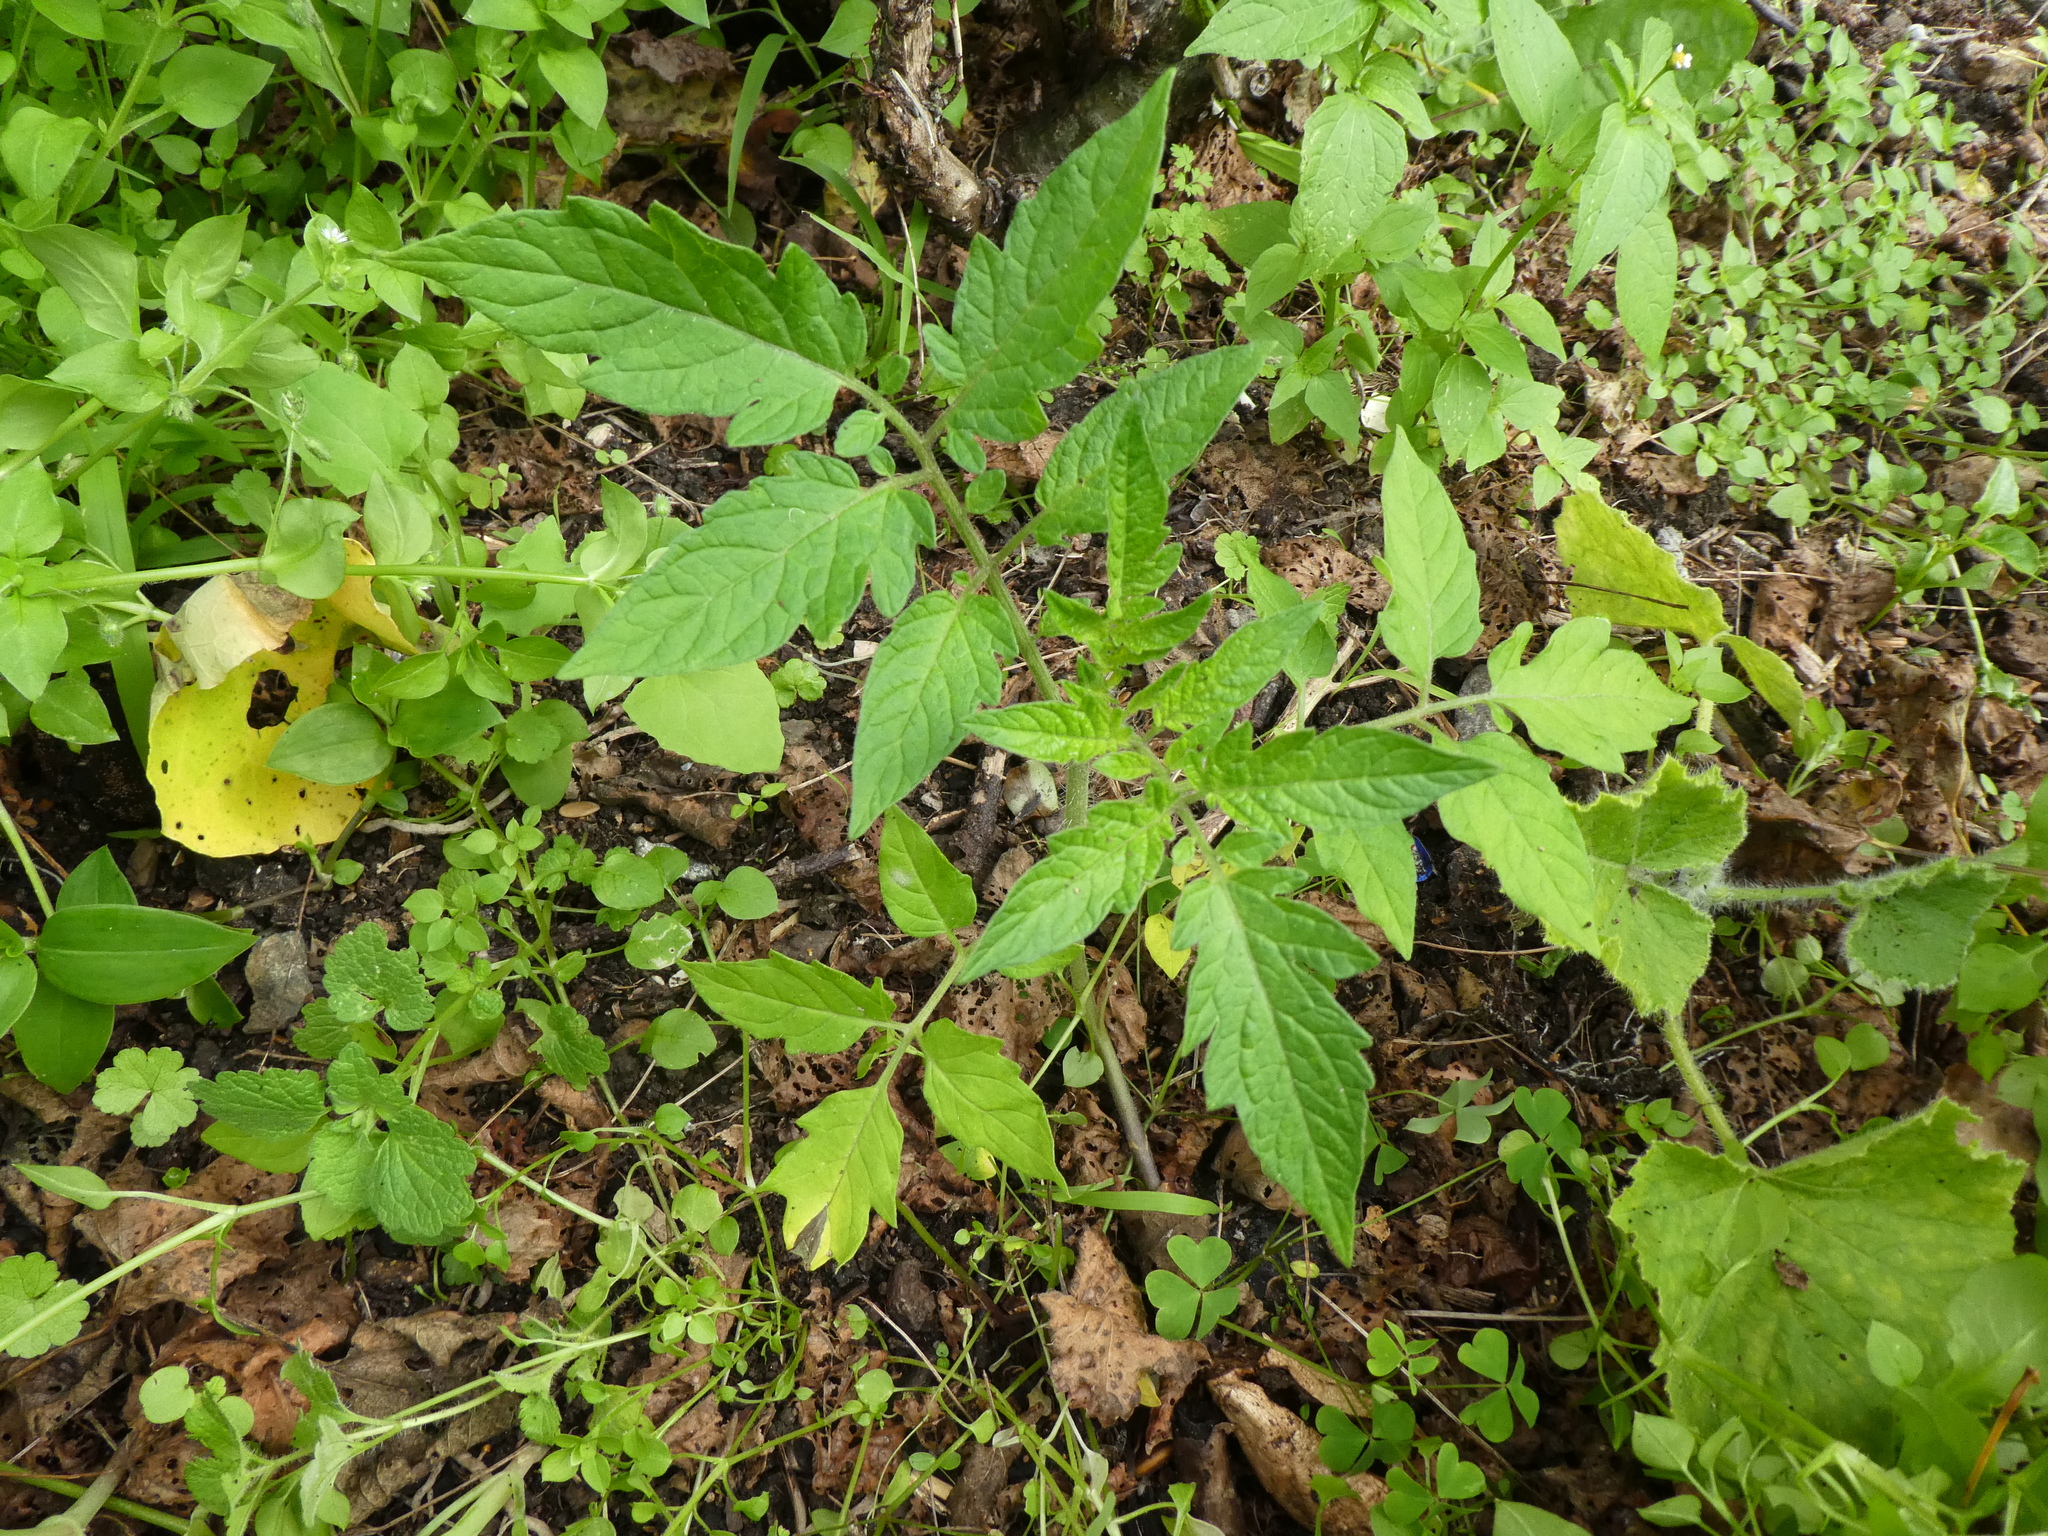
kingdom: Plantae
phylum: Tracheophyta
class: Magnoliopsida
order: Solanales
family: Solanaceae
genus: Solanum
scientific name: Solanum lycopersicum
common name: Garden tomato
